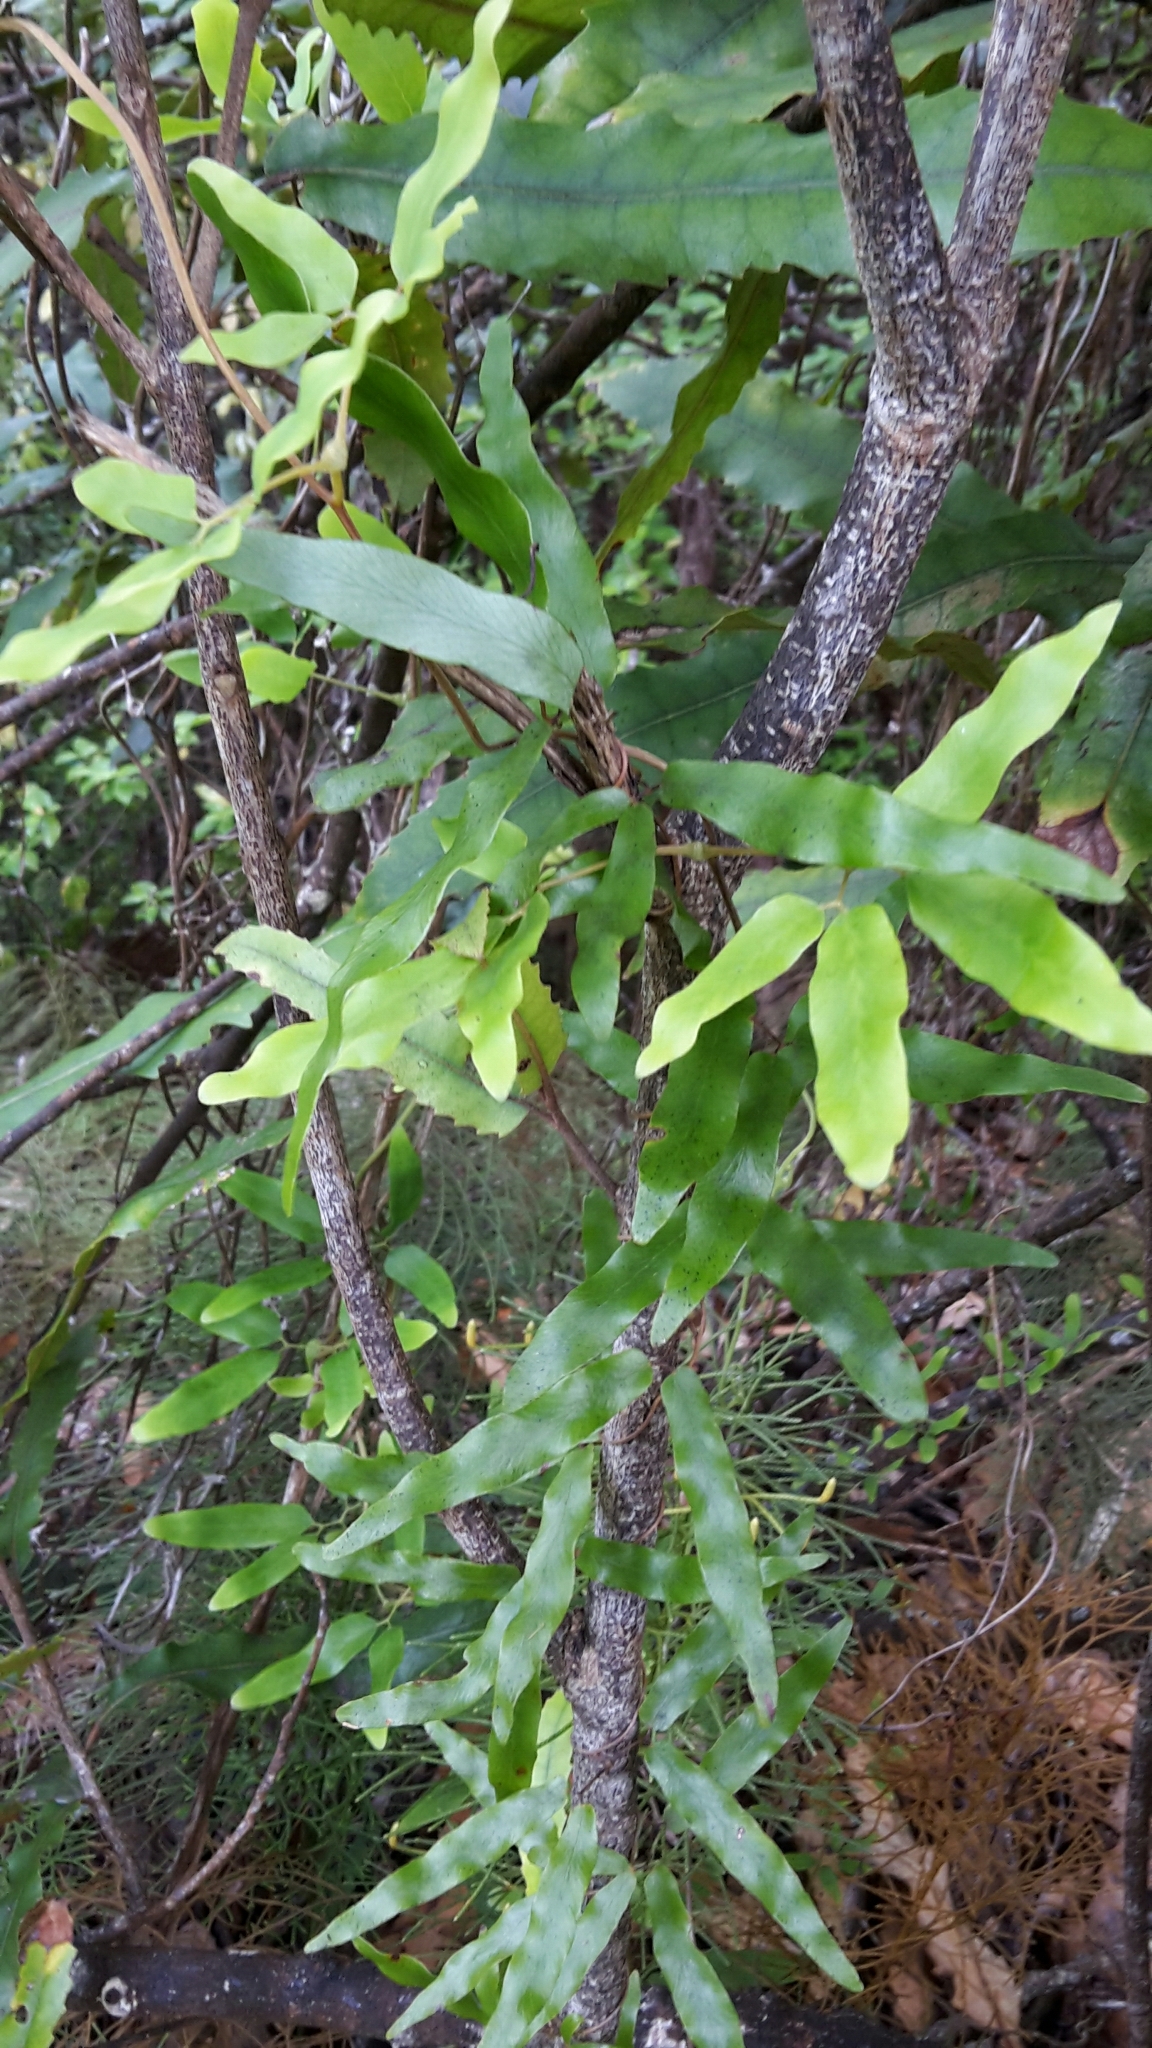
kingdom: Plantae
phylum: Tracheophyta
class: Polypodiopsida
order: Schizaeales
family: Lygodiaceae
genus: Lygodium
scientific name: Lygodium articulatum
